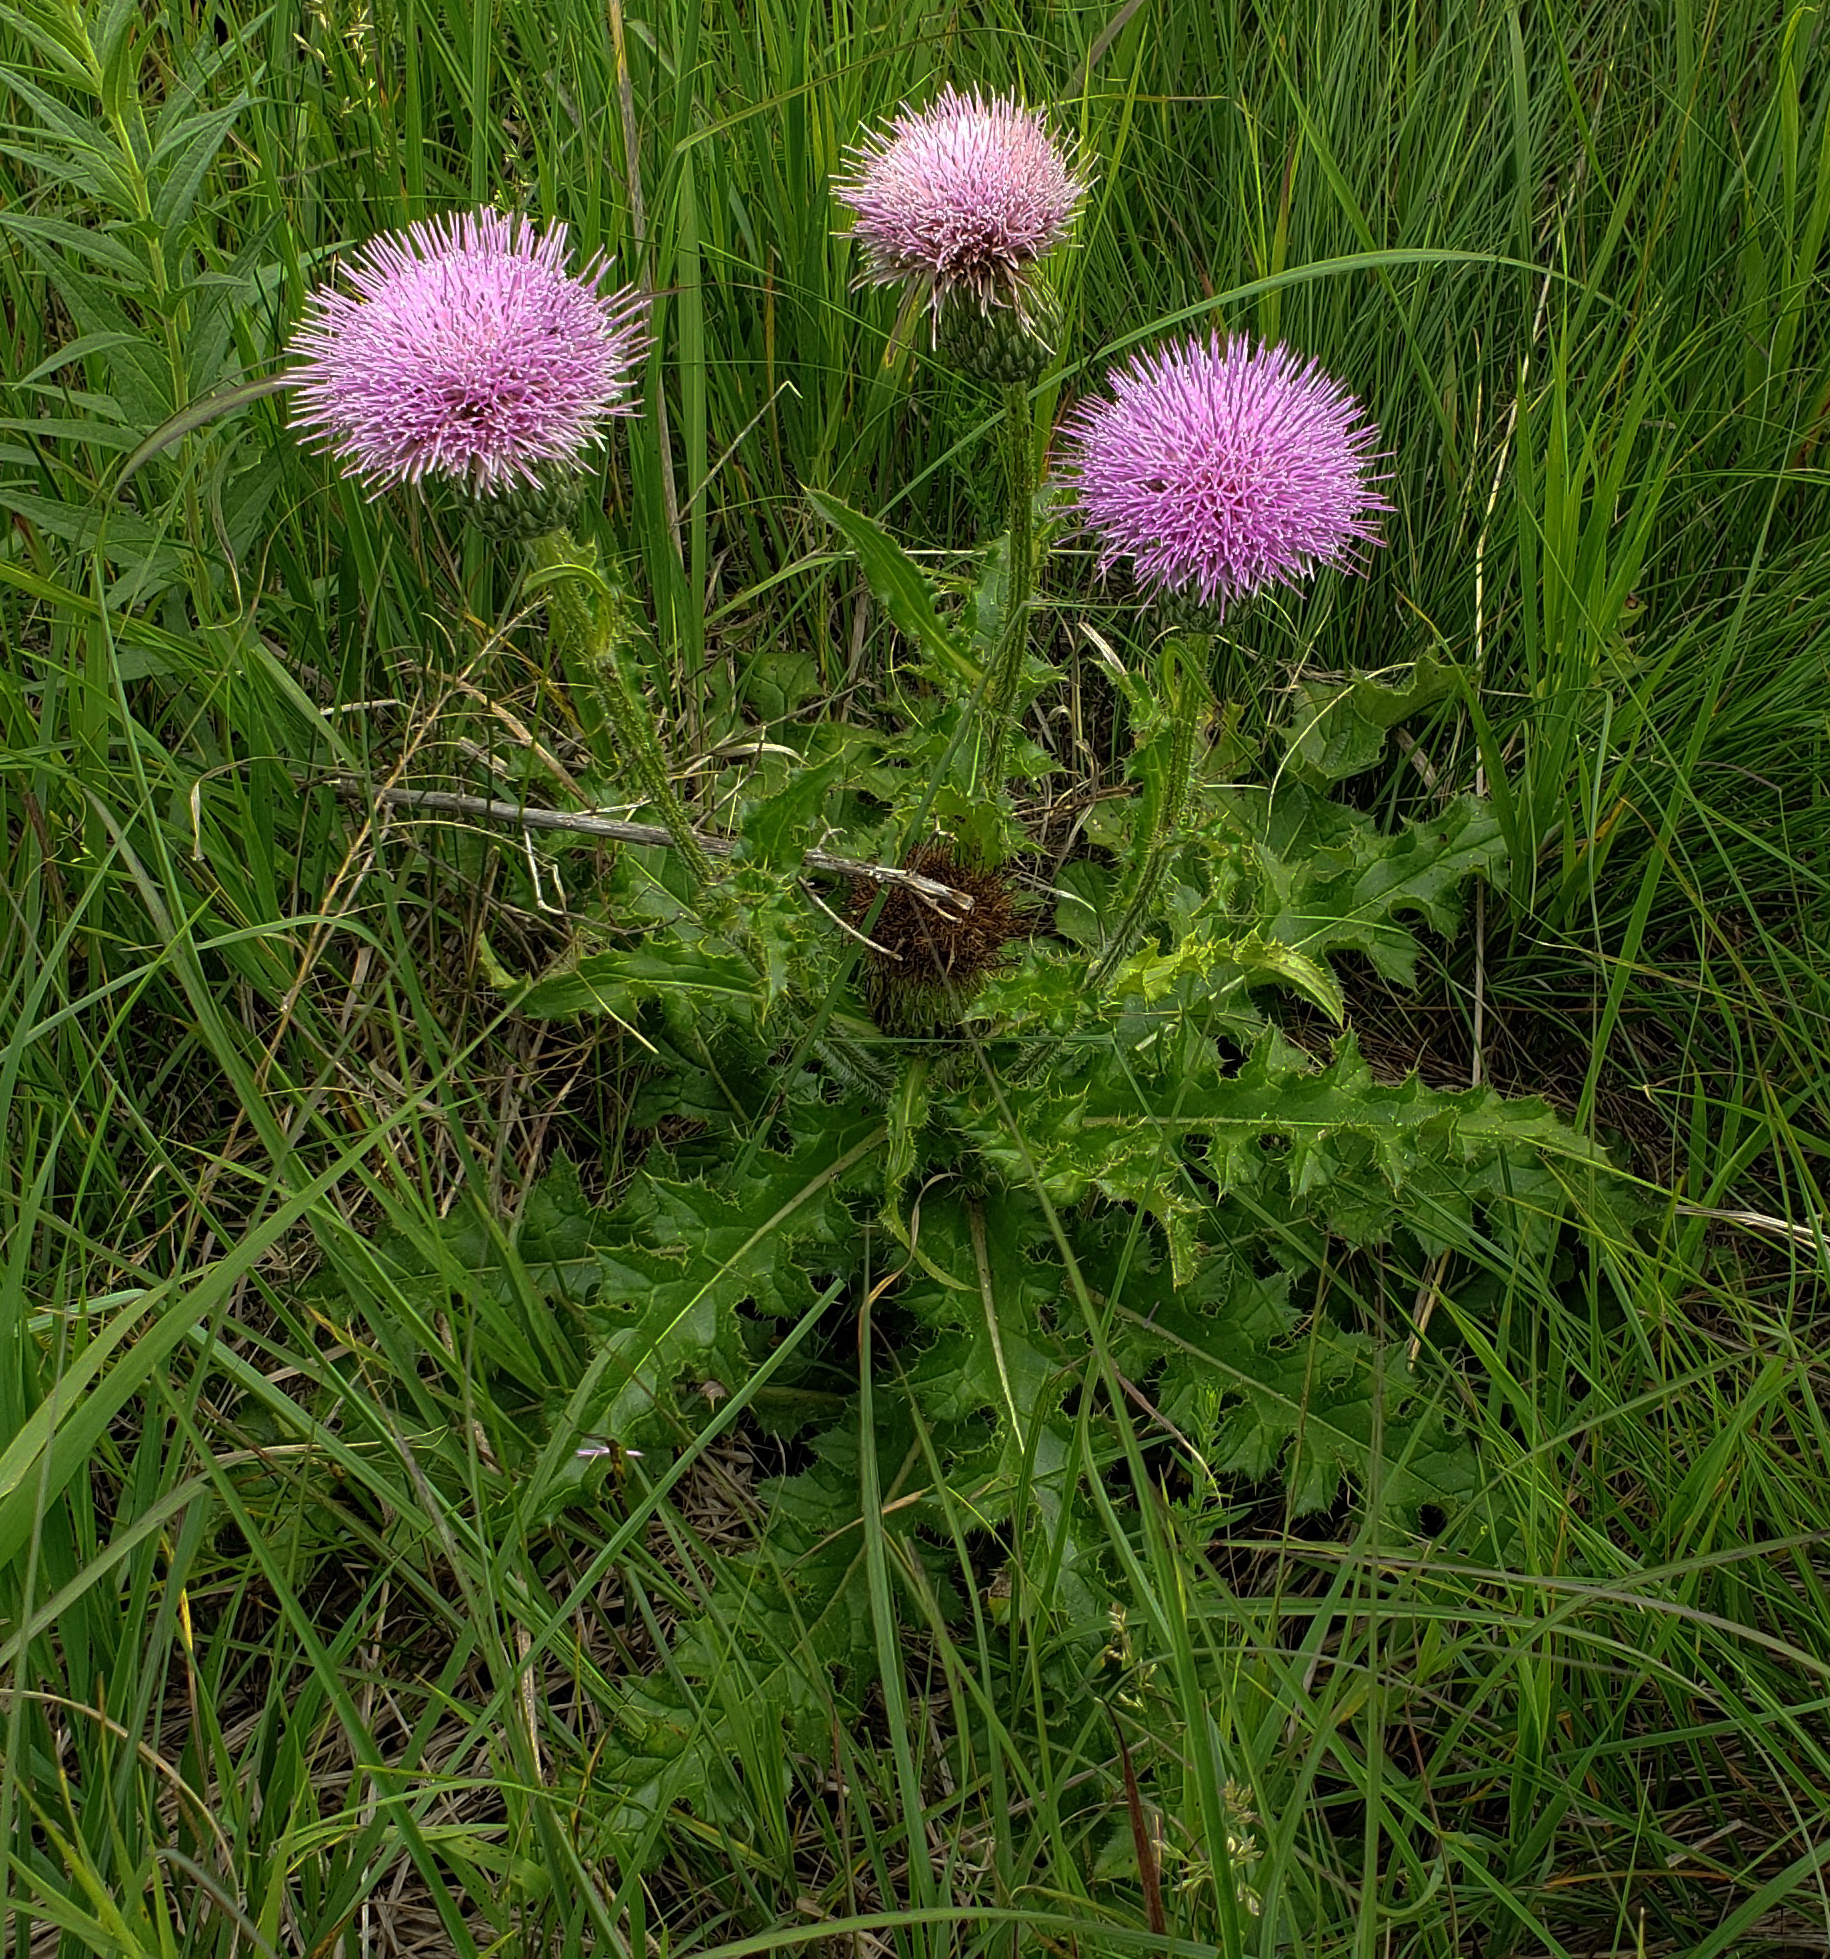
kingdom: Plantae
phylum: Tracheophyta
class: Magnoliopsida
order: Asterales
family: Asteraceae
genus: Cirsium
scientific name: Cirsium pumilum
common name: Pasture thistle
